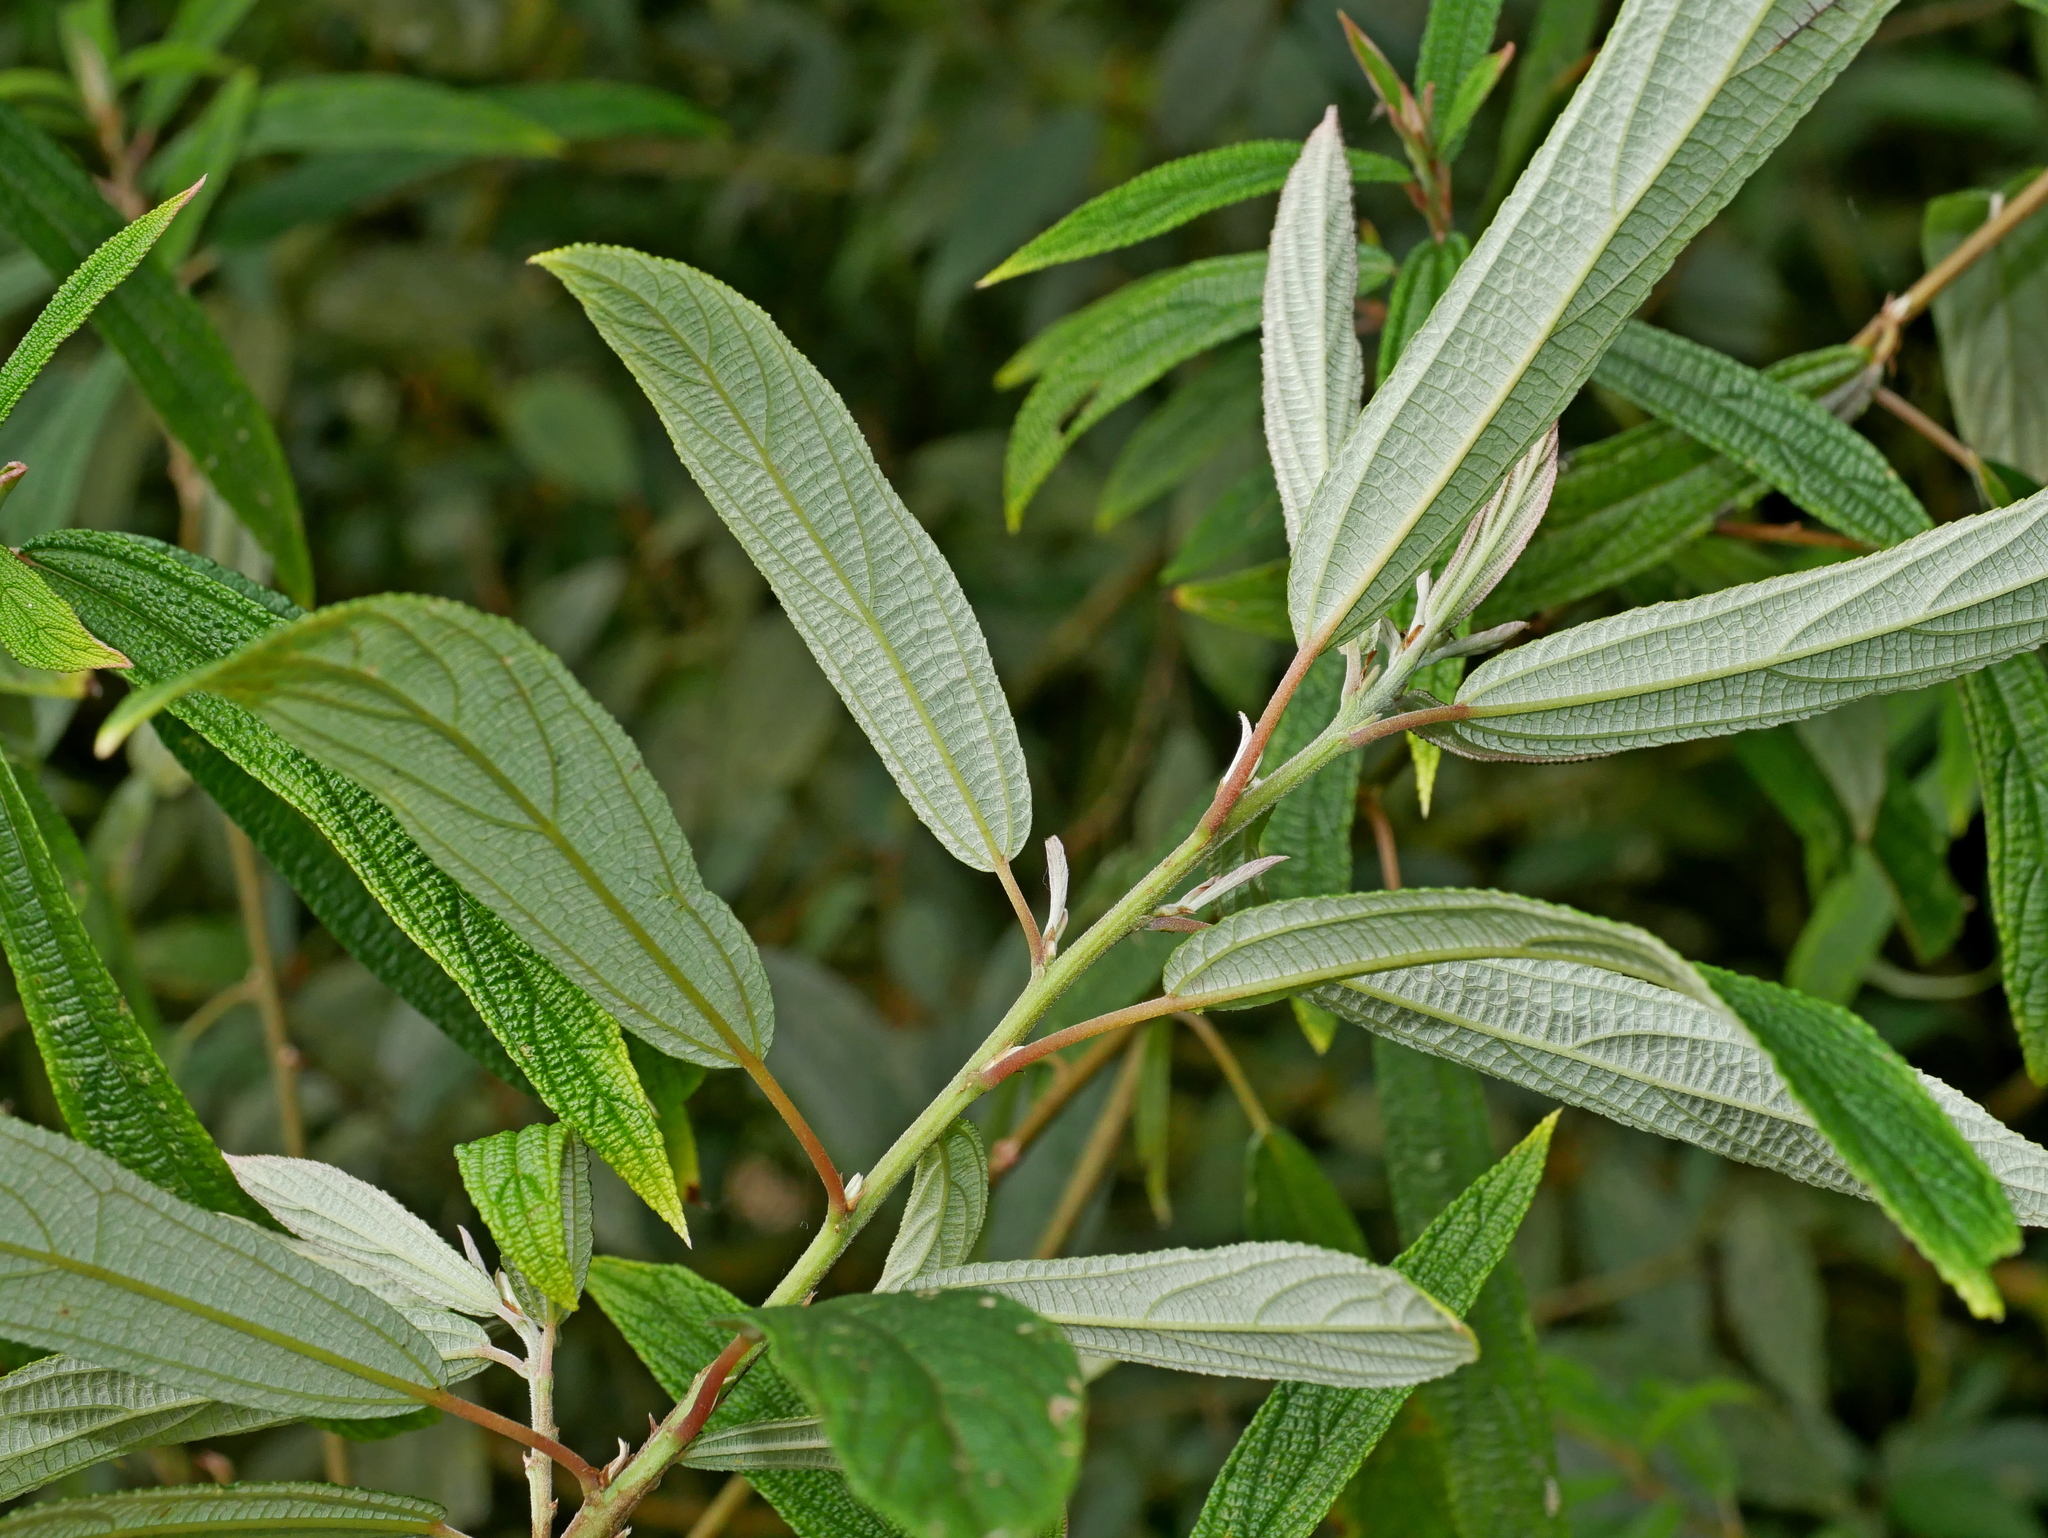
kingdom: Plantae
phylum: Tracheophyta
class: Magnoliopsida
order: Rosales
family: Urticaceae
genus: Debregeasia
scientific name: Debregeasia orientalis
